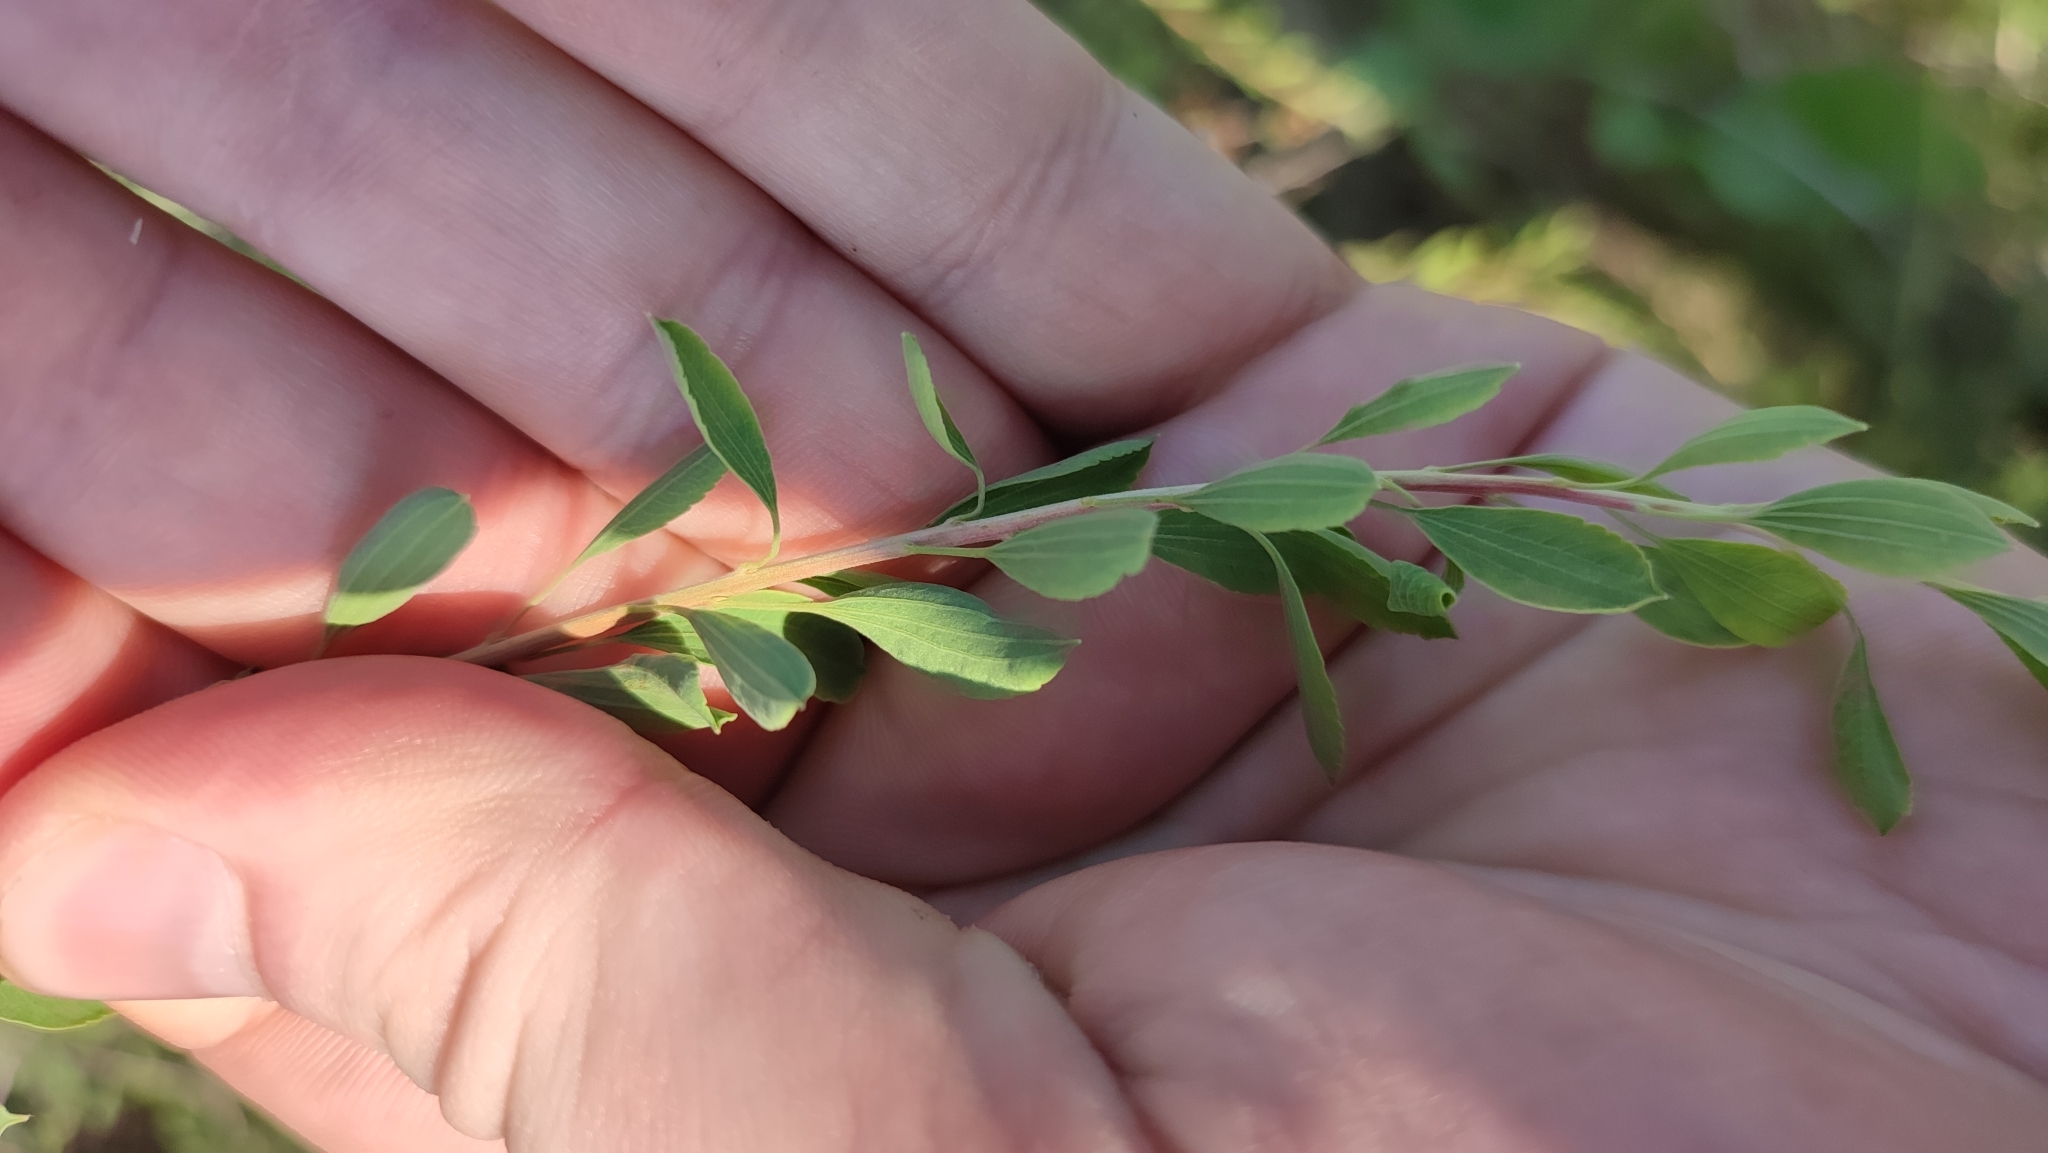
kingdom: Plantae
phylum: Tracheophyta
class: Magnoliopsida
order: Rosales
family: Rosaceae
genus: Spiraea
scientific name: Spiraea crenata
